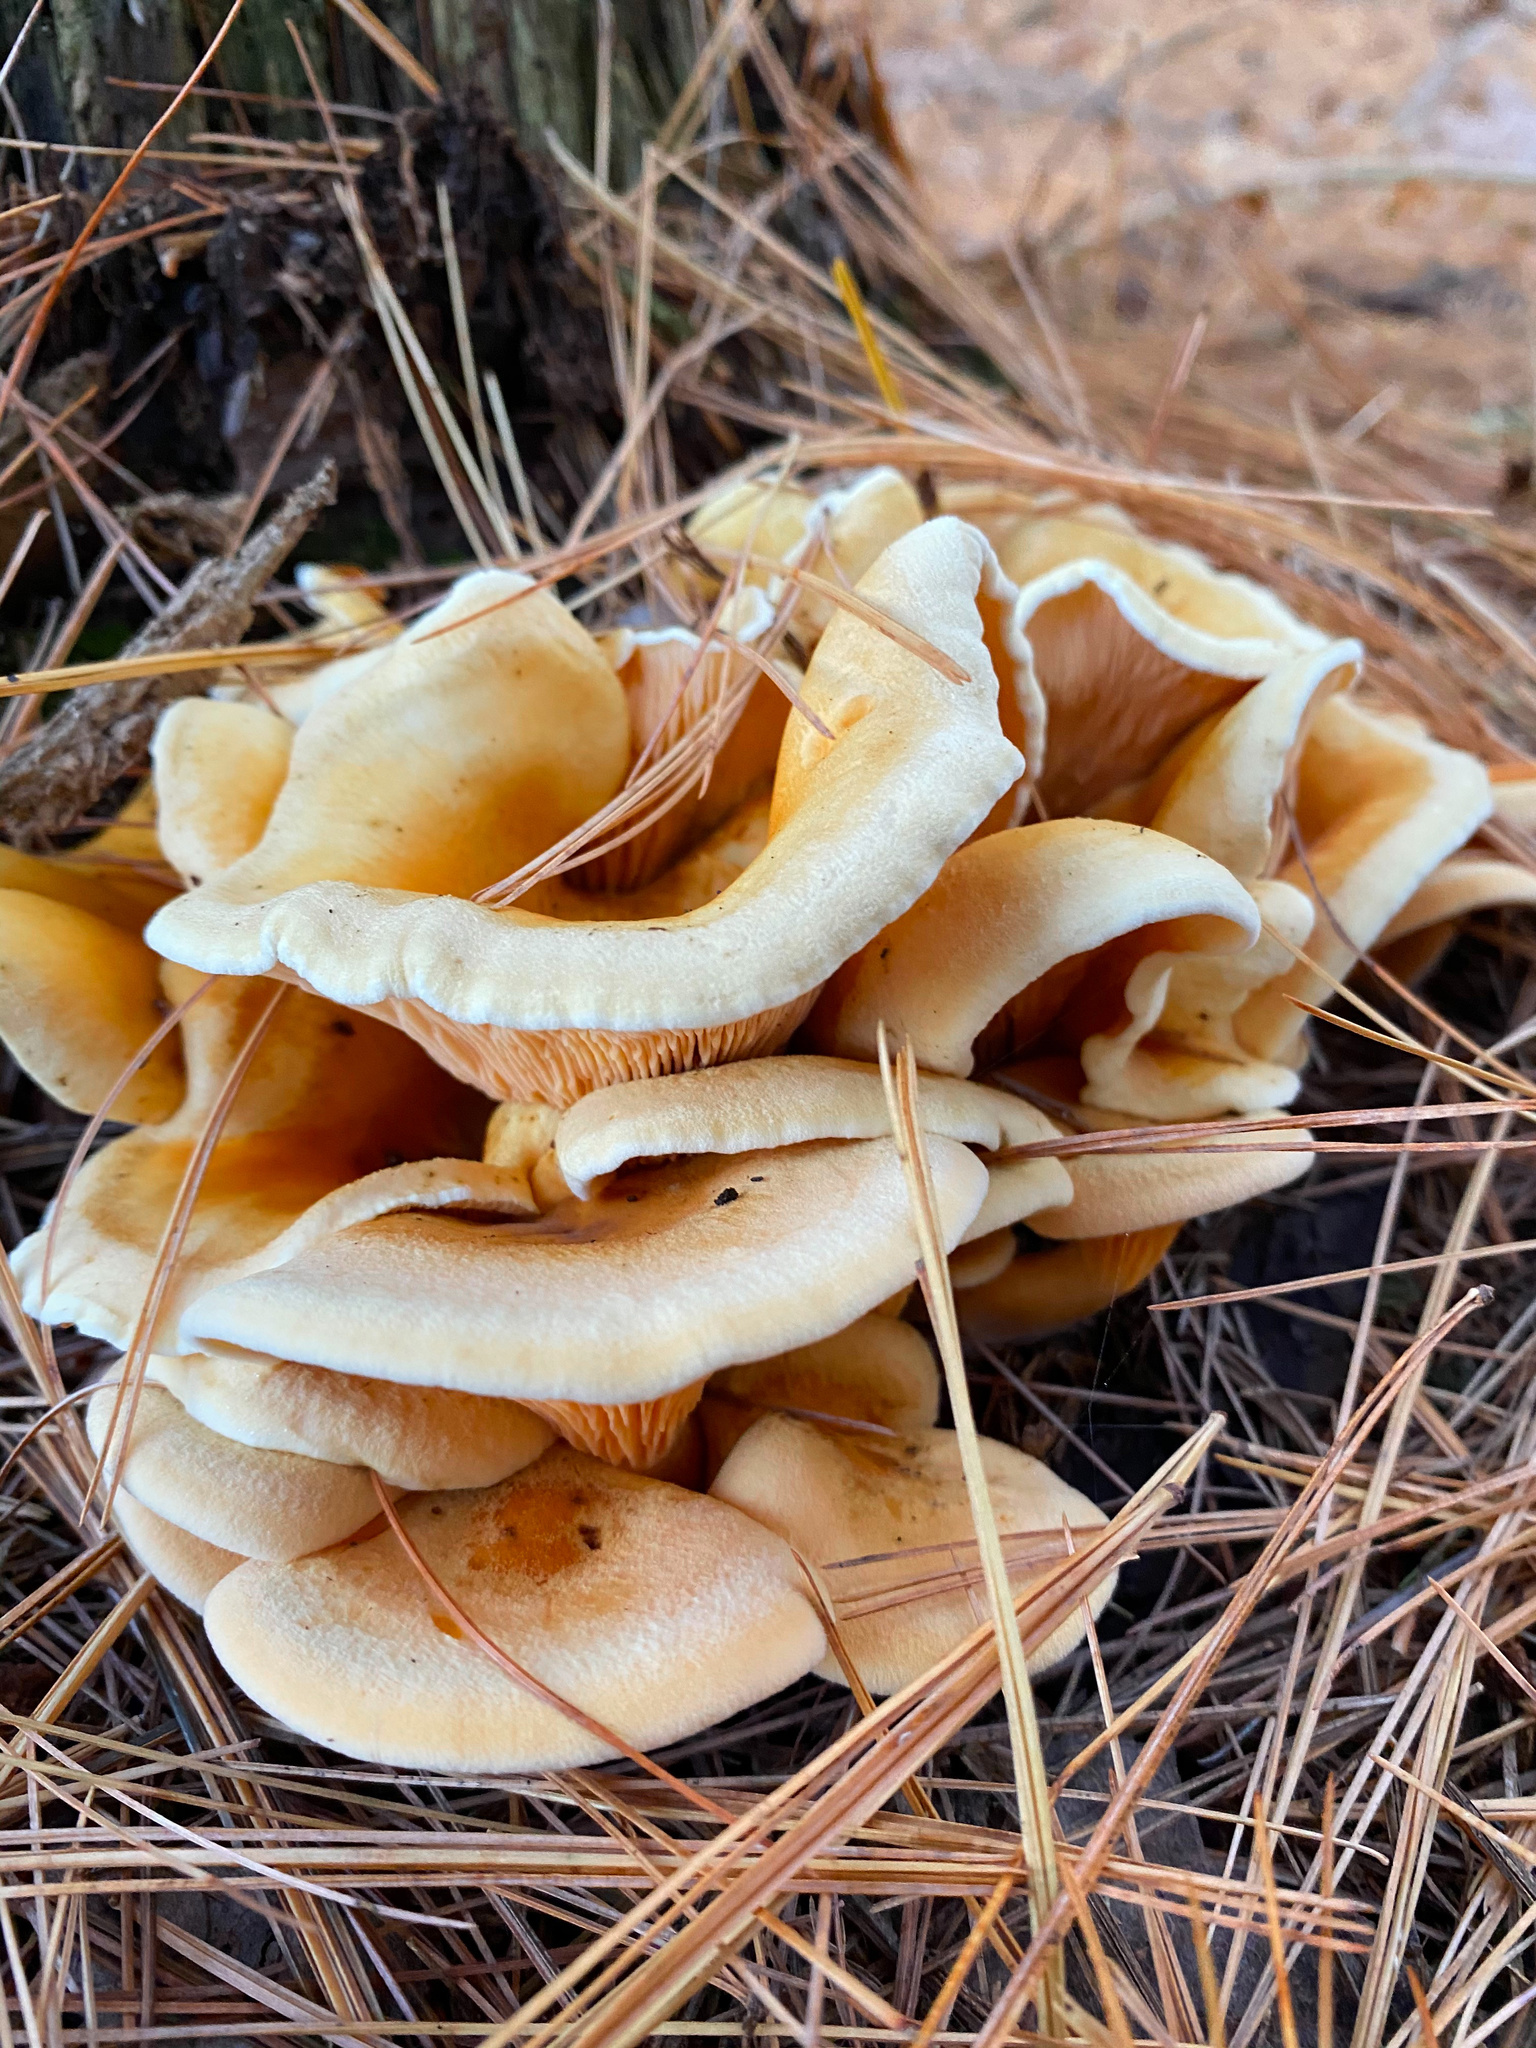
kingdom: Fungi
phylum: Basidiomycota
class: Agaricomycetes
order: Boletales
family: Hygrophoropsidaceae
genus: Hygrophoropsis
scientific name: Hygrophoropsis aurantiaca
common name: False chanterelle
